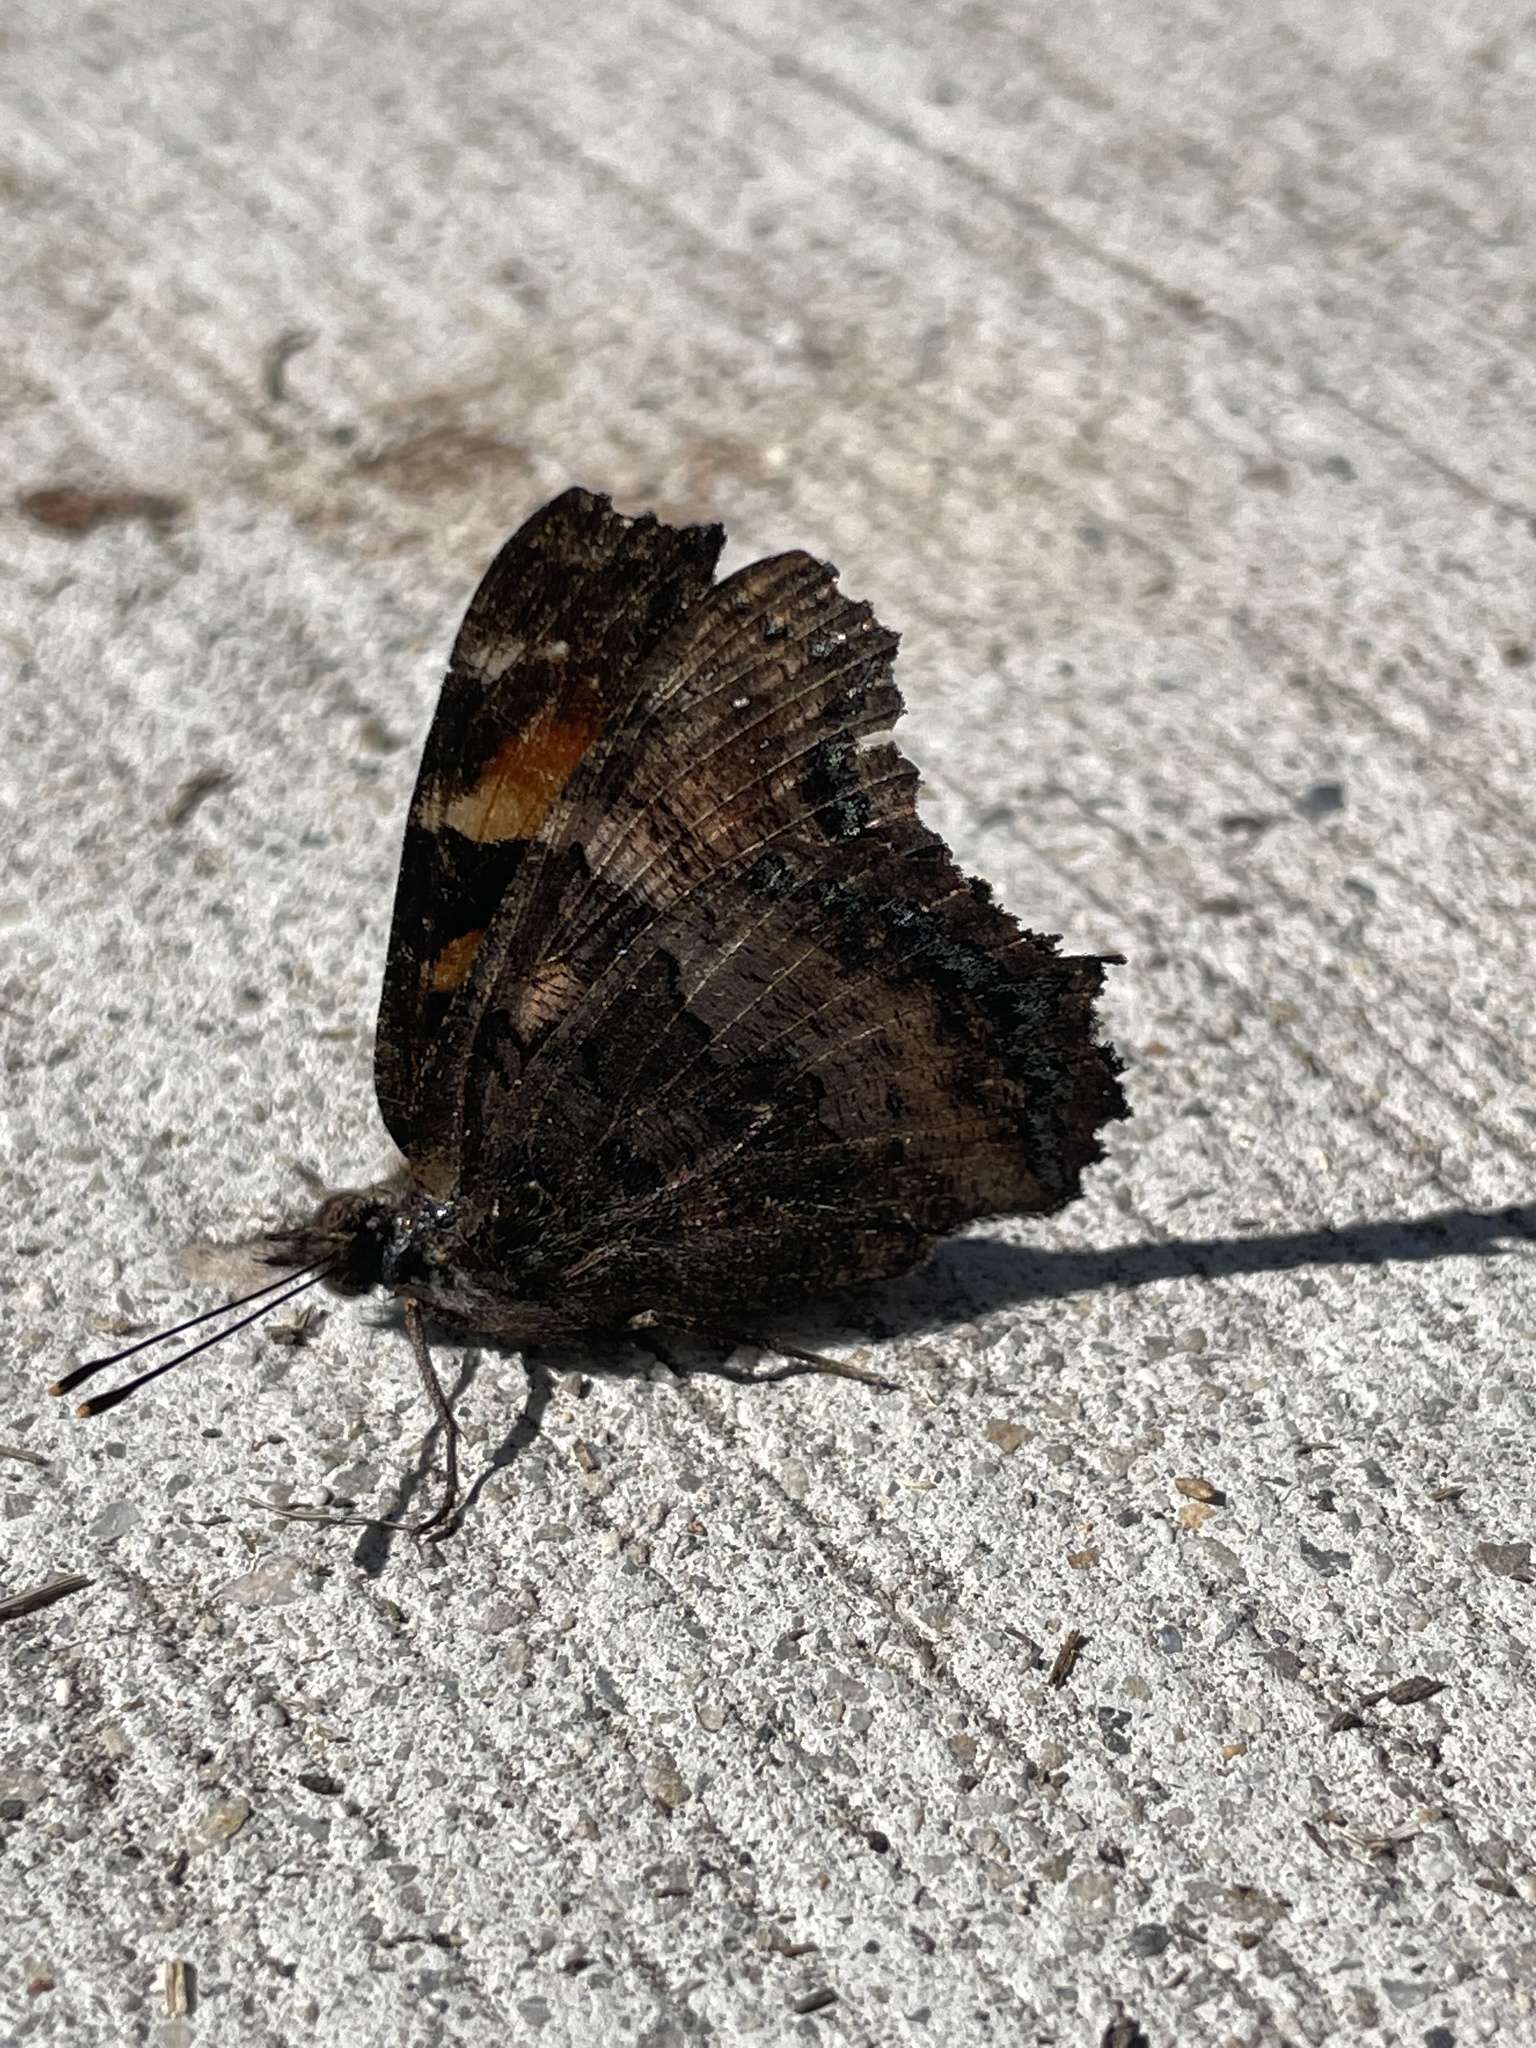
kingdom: Animalia
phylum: Arthropoda
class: Insecta
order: Lepidoptera
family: Nymphalidae
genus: Nymphalis
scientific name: Nymphalis californica
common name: California tortoiseshell
